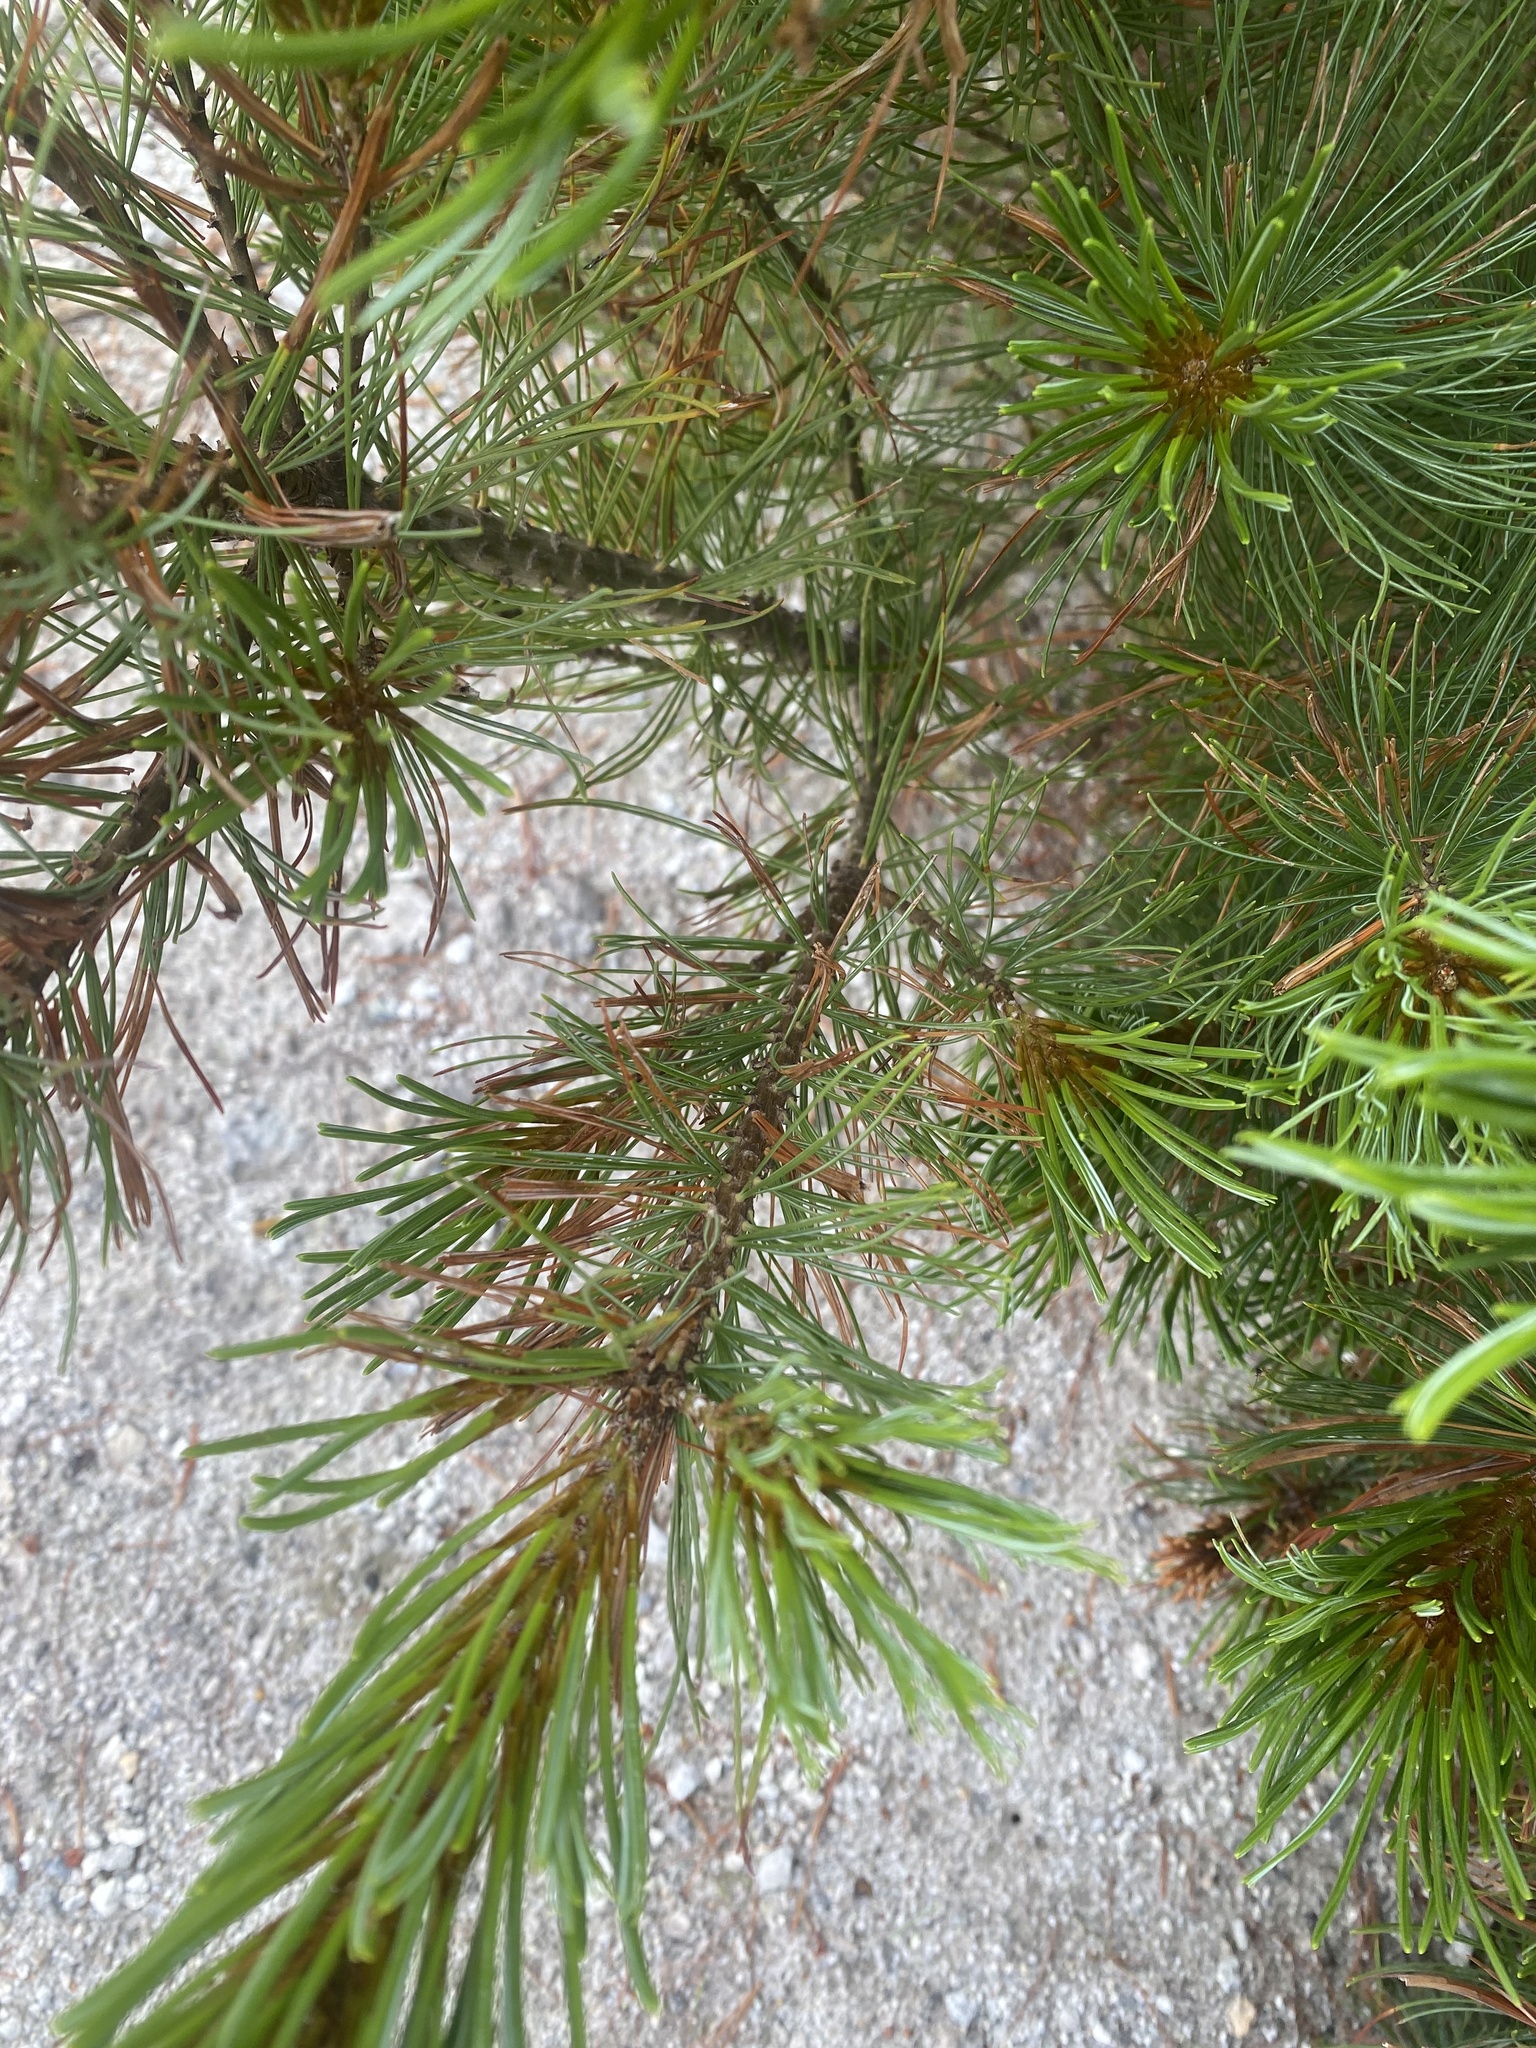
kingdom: Plantae
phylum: Tracheophyta
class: Pinopsida
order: Pinales
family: Pinaceae
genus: Pinus
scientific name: Pinus pumila
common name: Dwarf siberian pine
